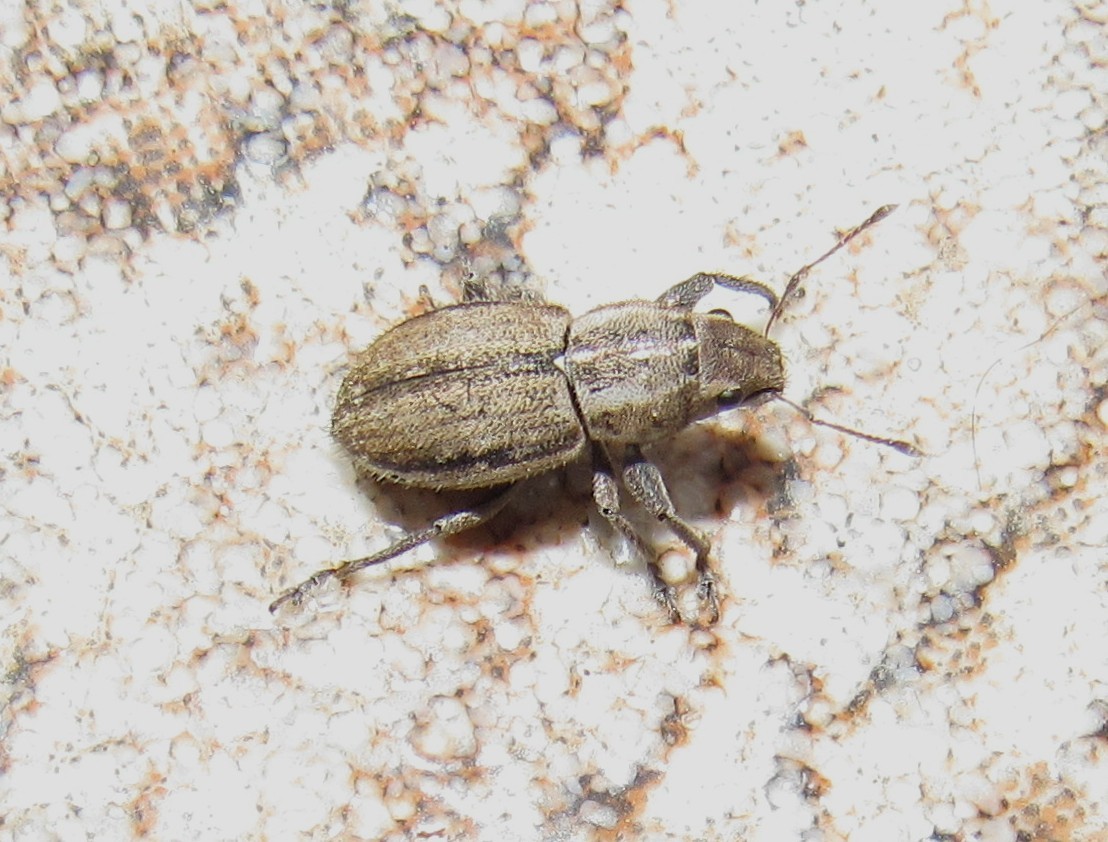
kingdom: Animalia
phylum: Arthropoda
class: Insecta
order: Coleoptera
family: Curculionidae
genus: Naupactus
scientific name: Naupactus peregrinus
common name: Whitefringed beetle
